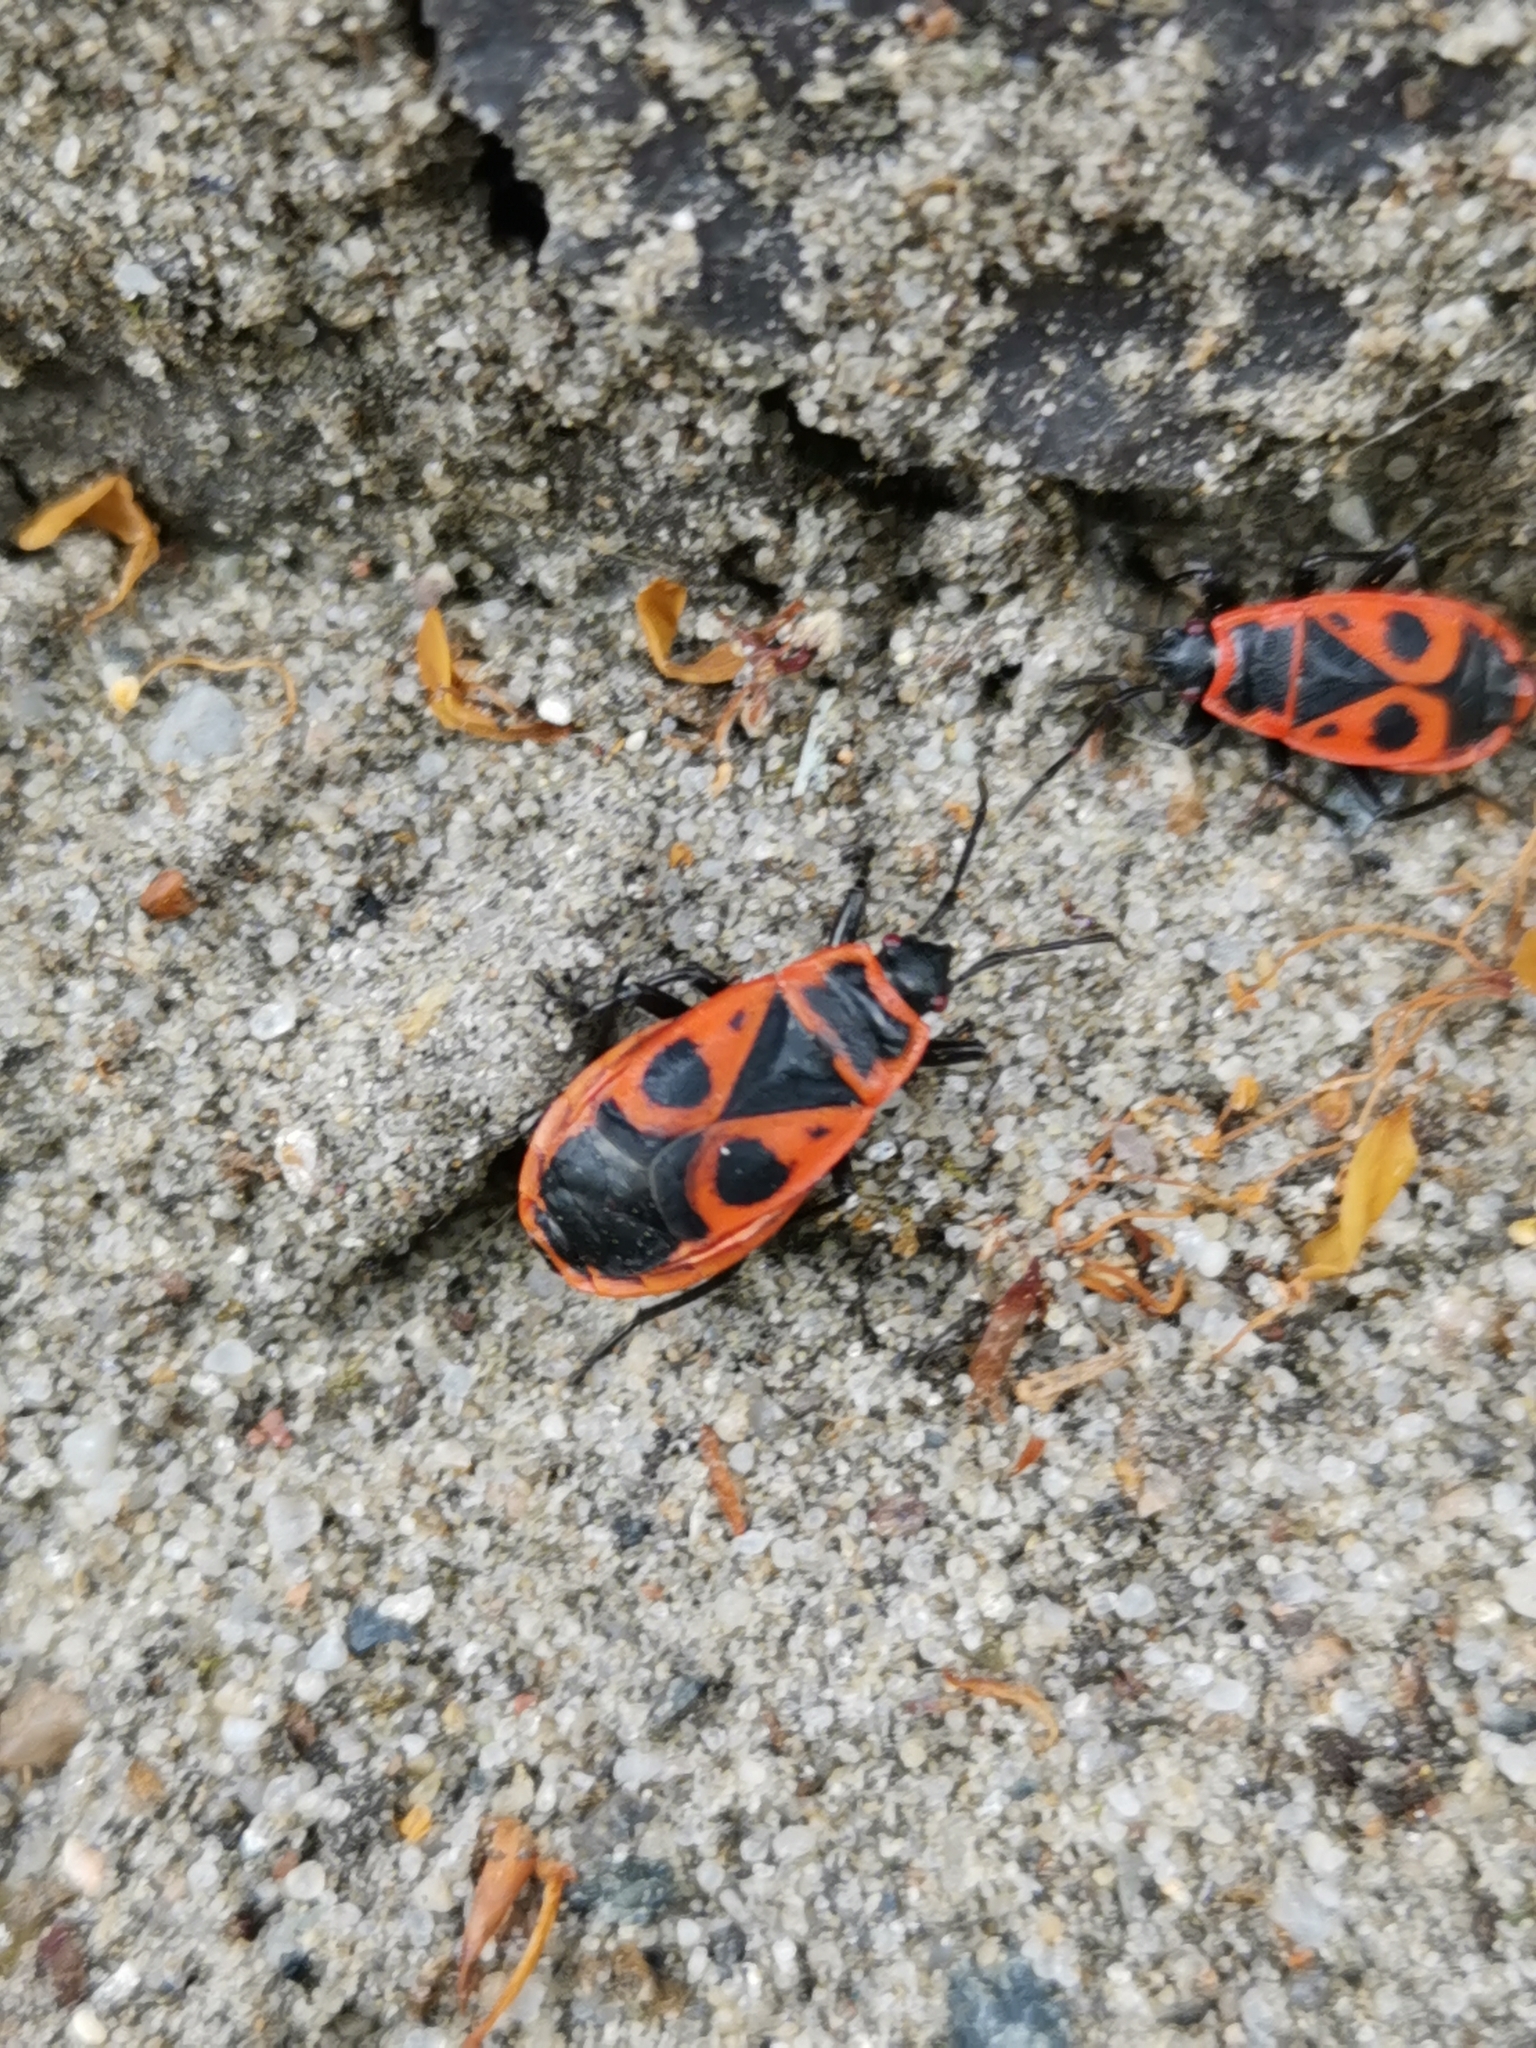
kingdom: Animalia
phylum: Arthropoda
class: Insecta
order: Hemiptera
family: Pyrrhocoridae
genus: Pyrrhocoris
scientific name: Pyrrhocoris apterus
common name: Firebug
